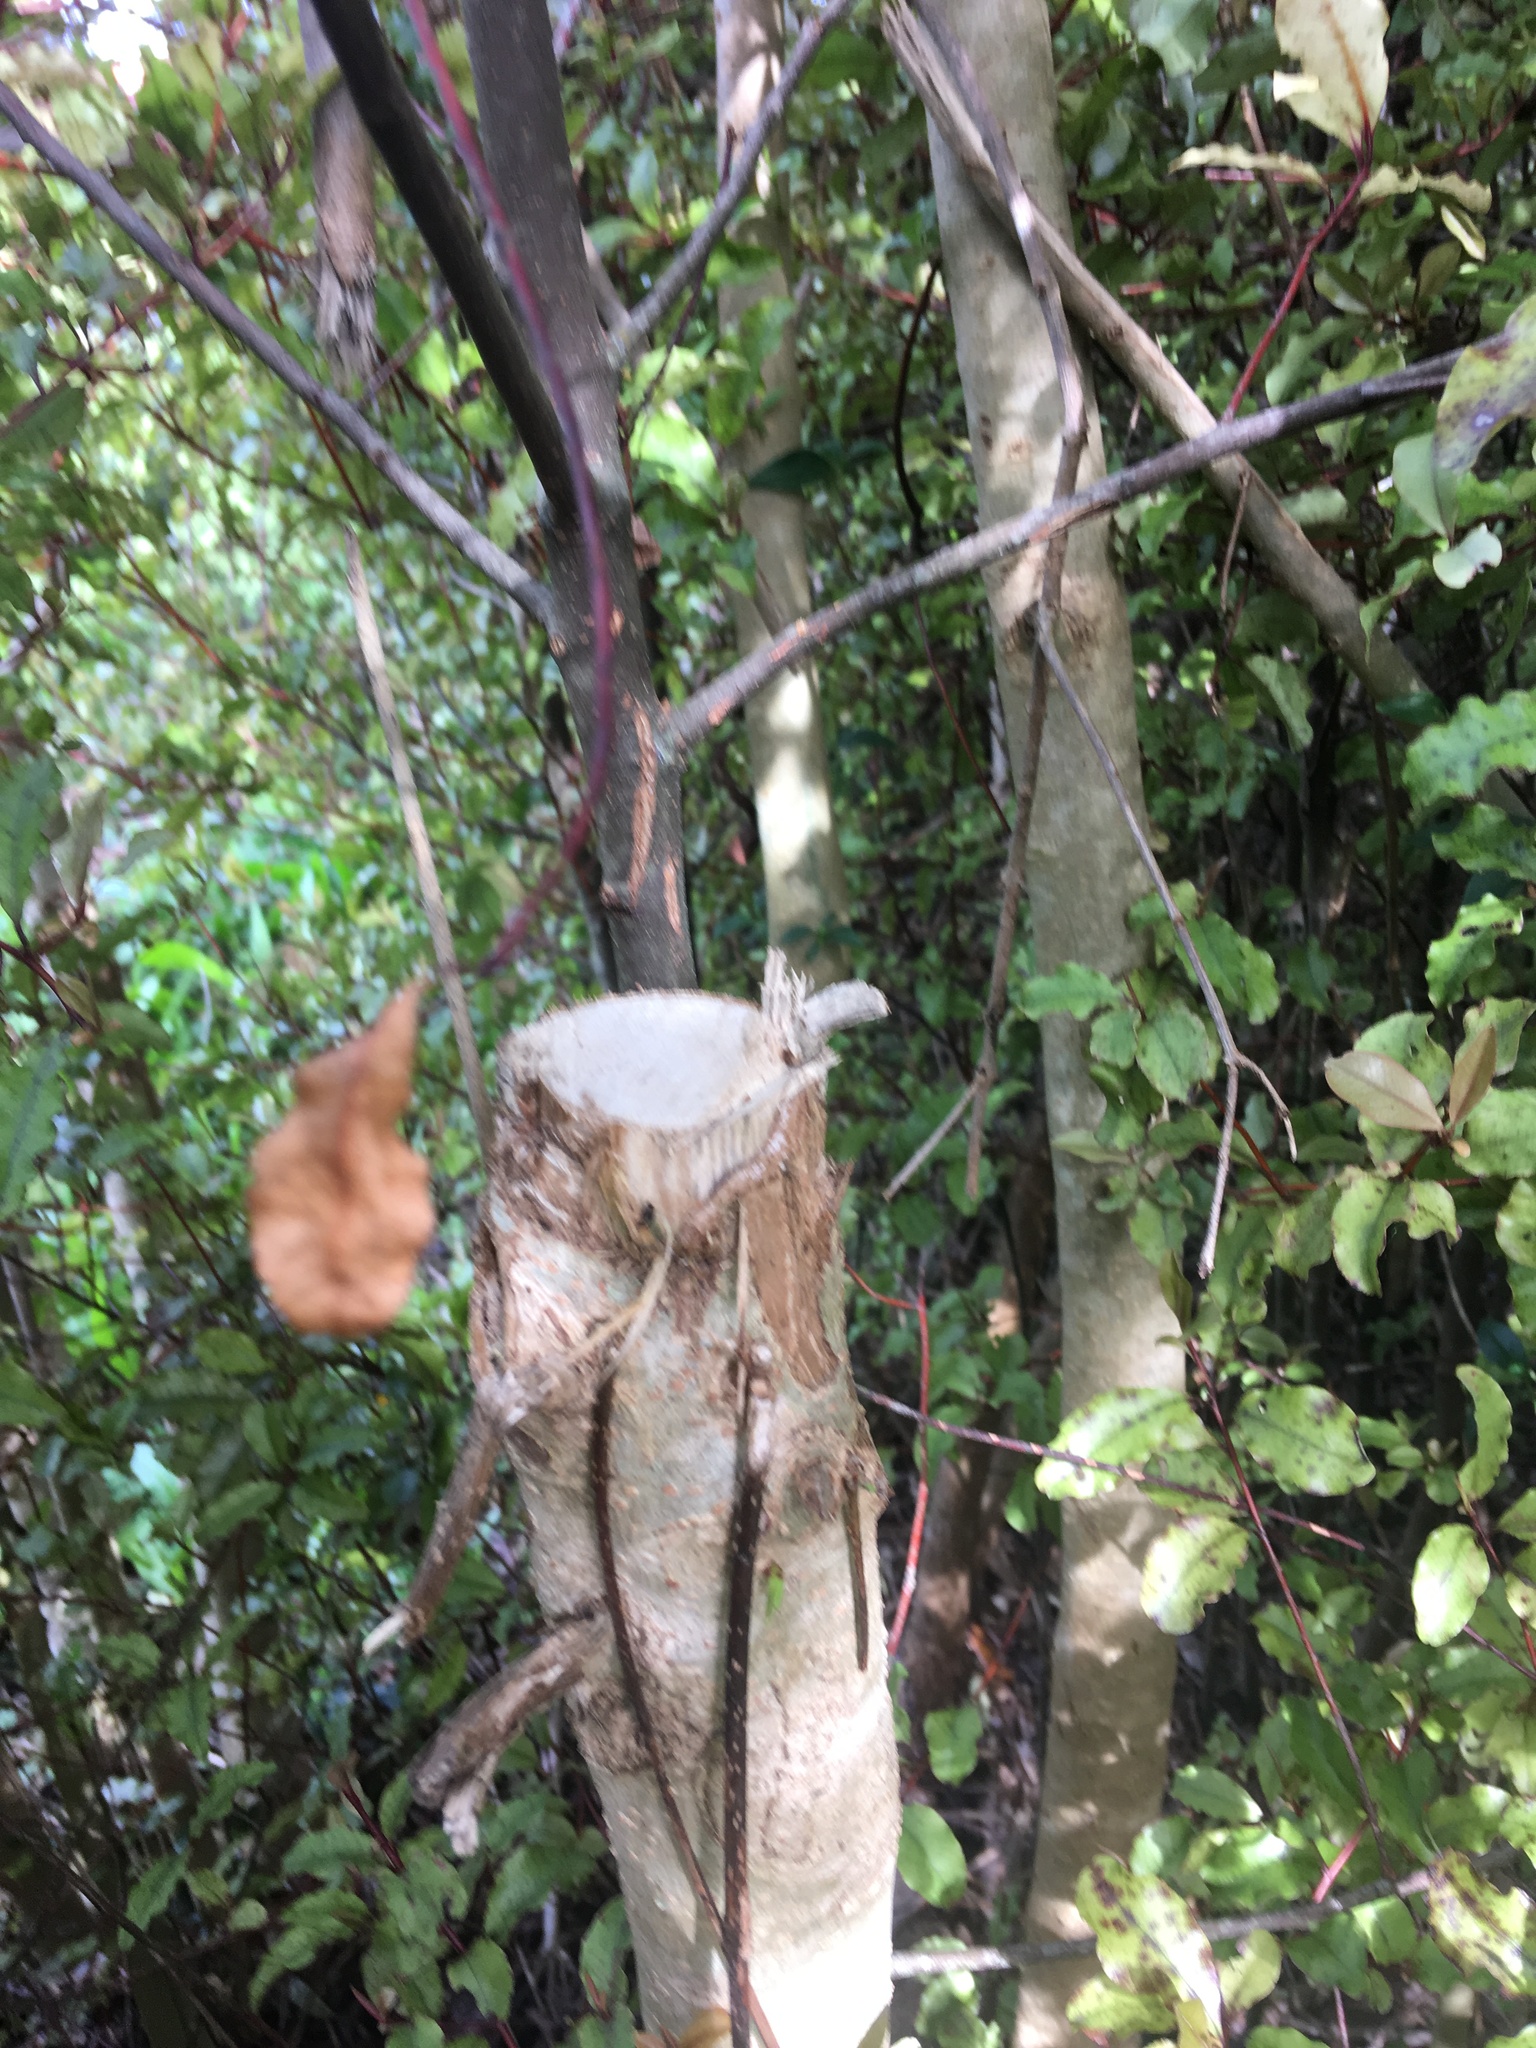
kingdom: Plantae
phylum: Tracheophyta
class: Magnoliopsida
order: Lamiales
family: Oleaceae
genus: Ligustrum
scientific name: Ligustrum lucidum
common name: Glossy privet
